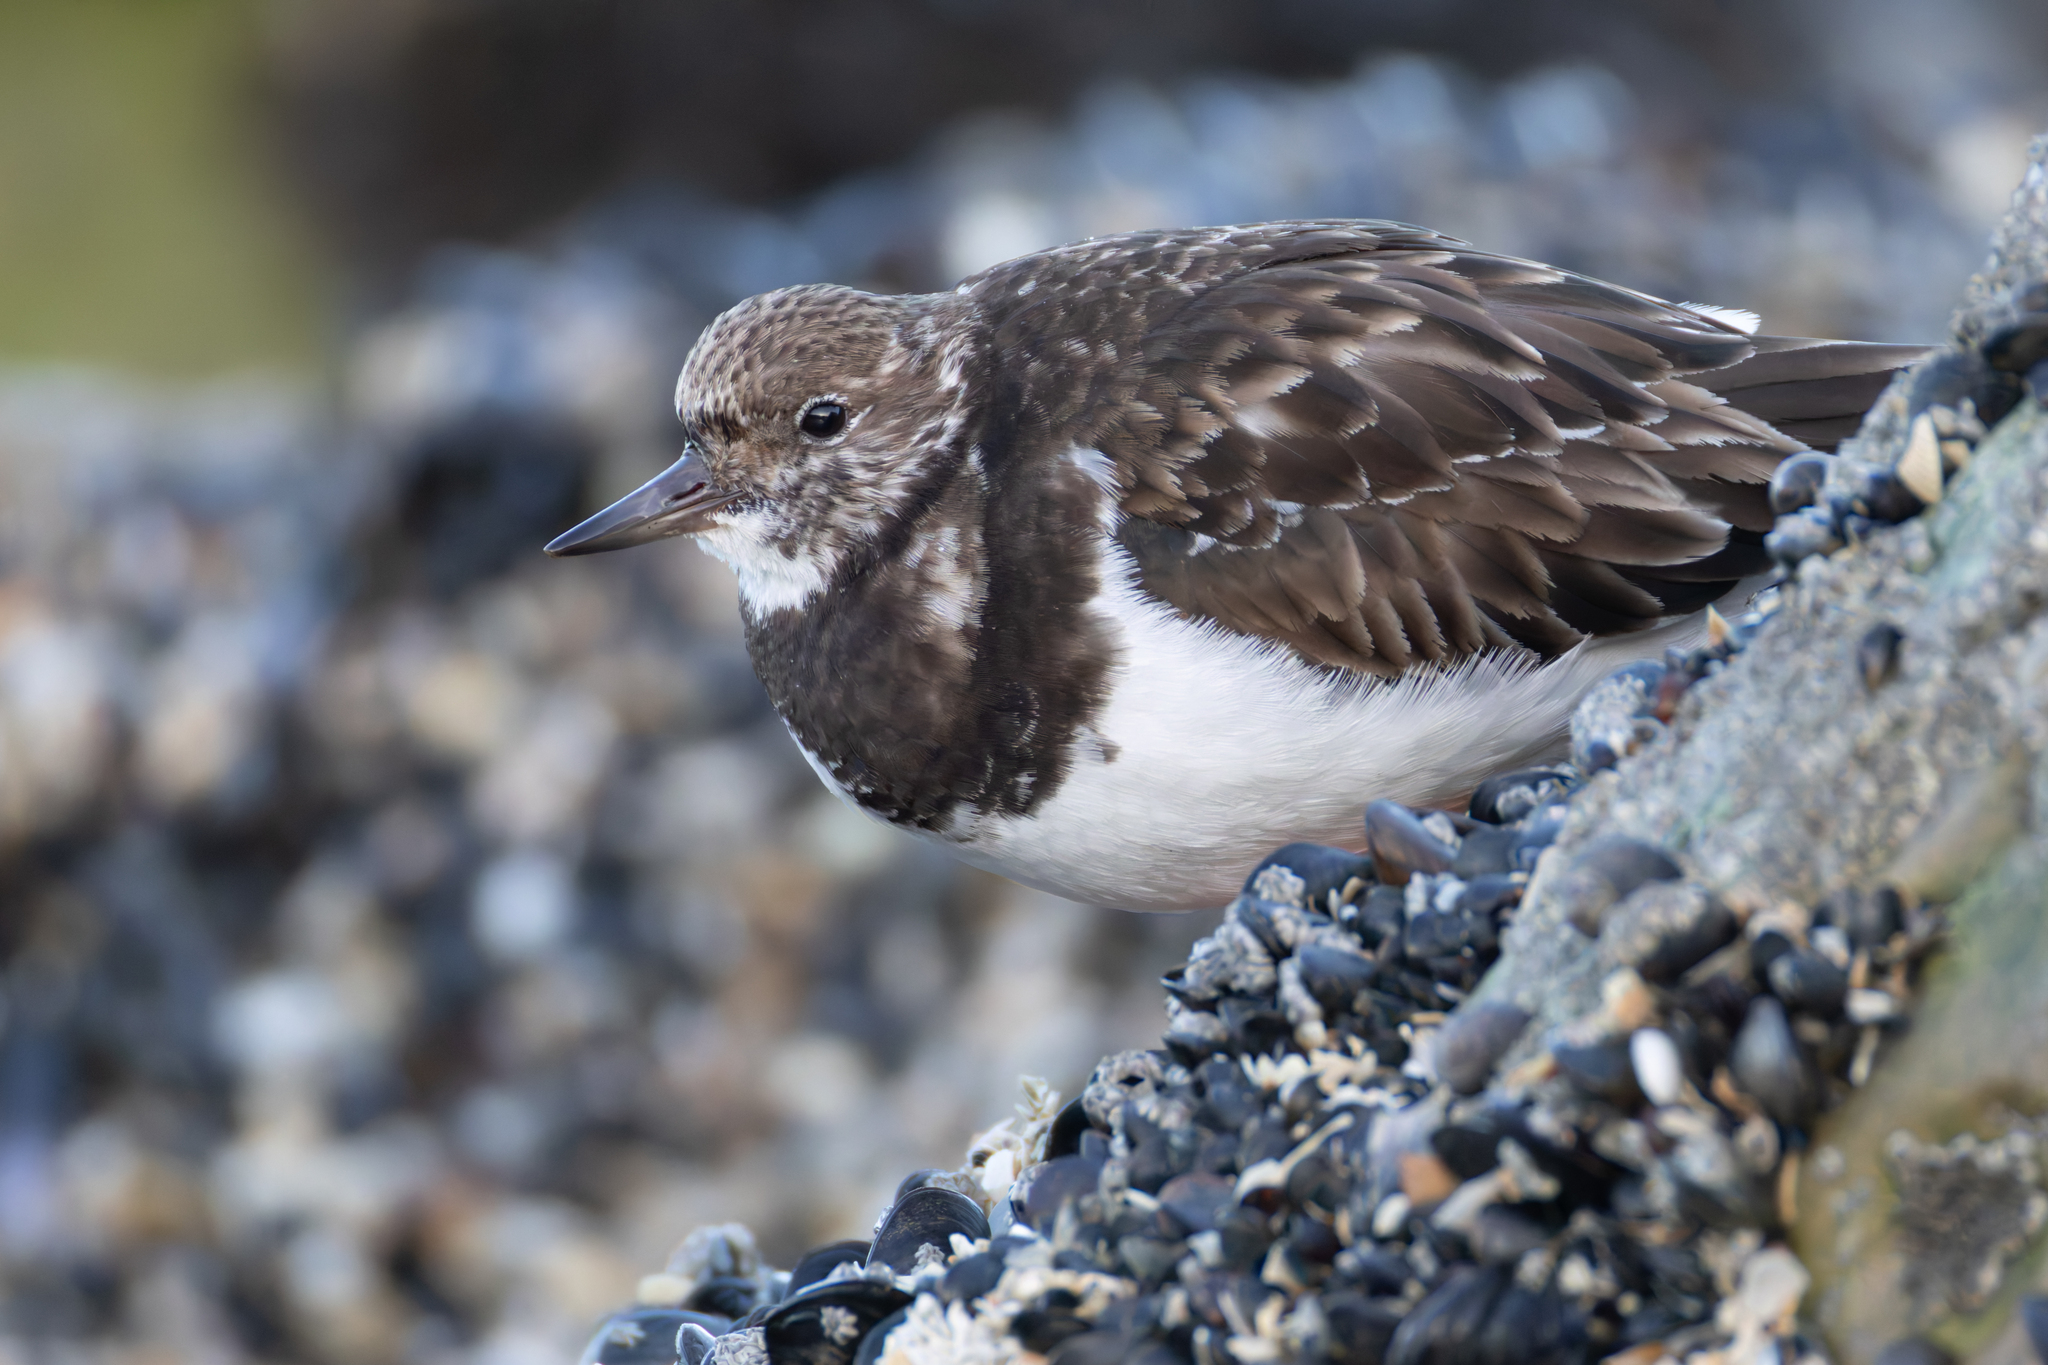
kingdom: Animalia
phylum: Chordata
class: Aves
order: Charadriiformes
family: Scolopacidae
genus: Arenaria
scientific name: Arenaria interpres
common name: Ruddy turnstone
